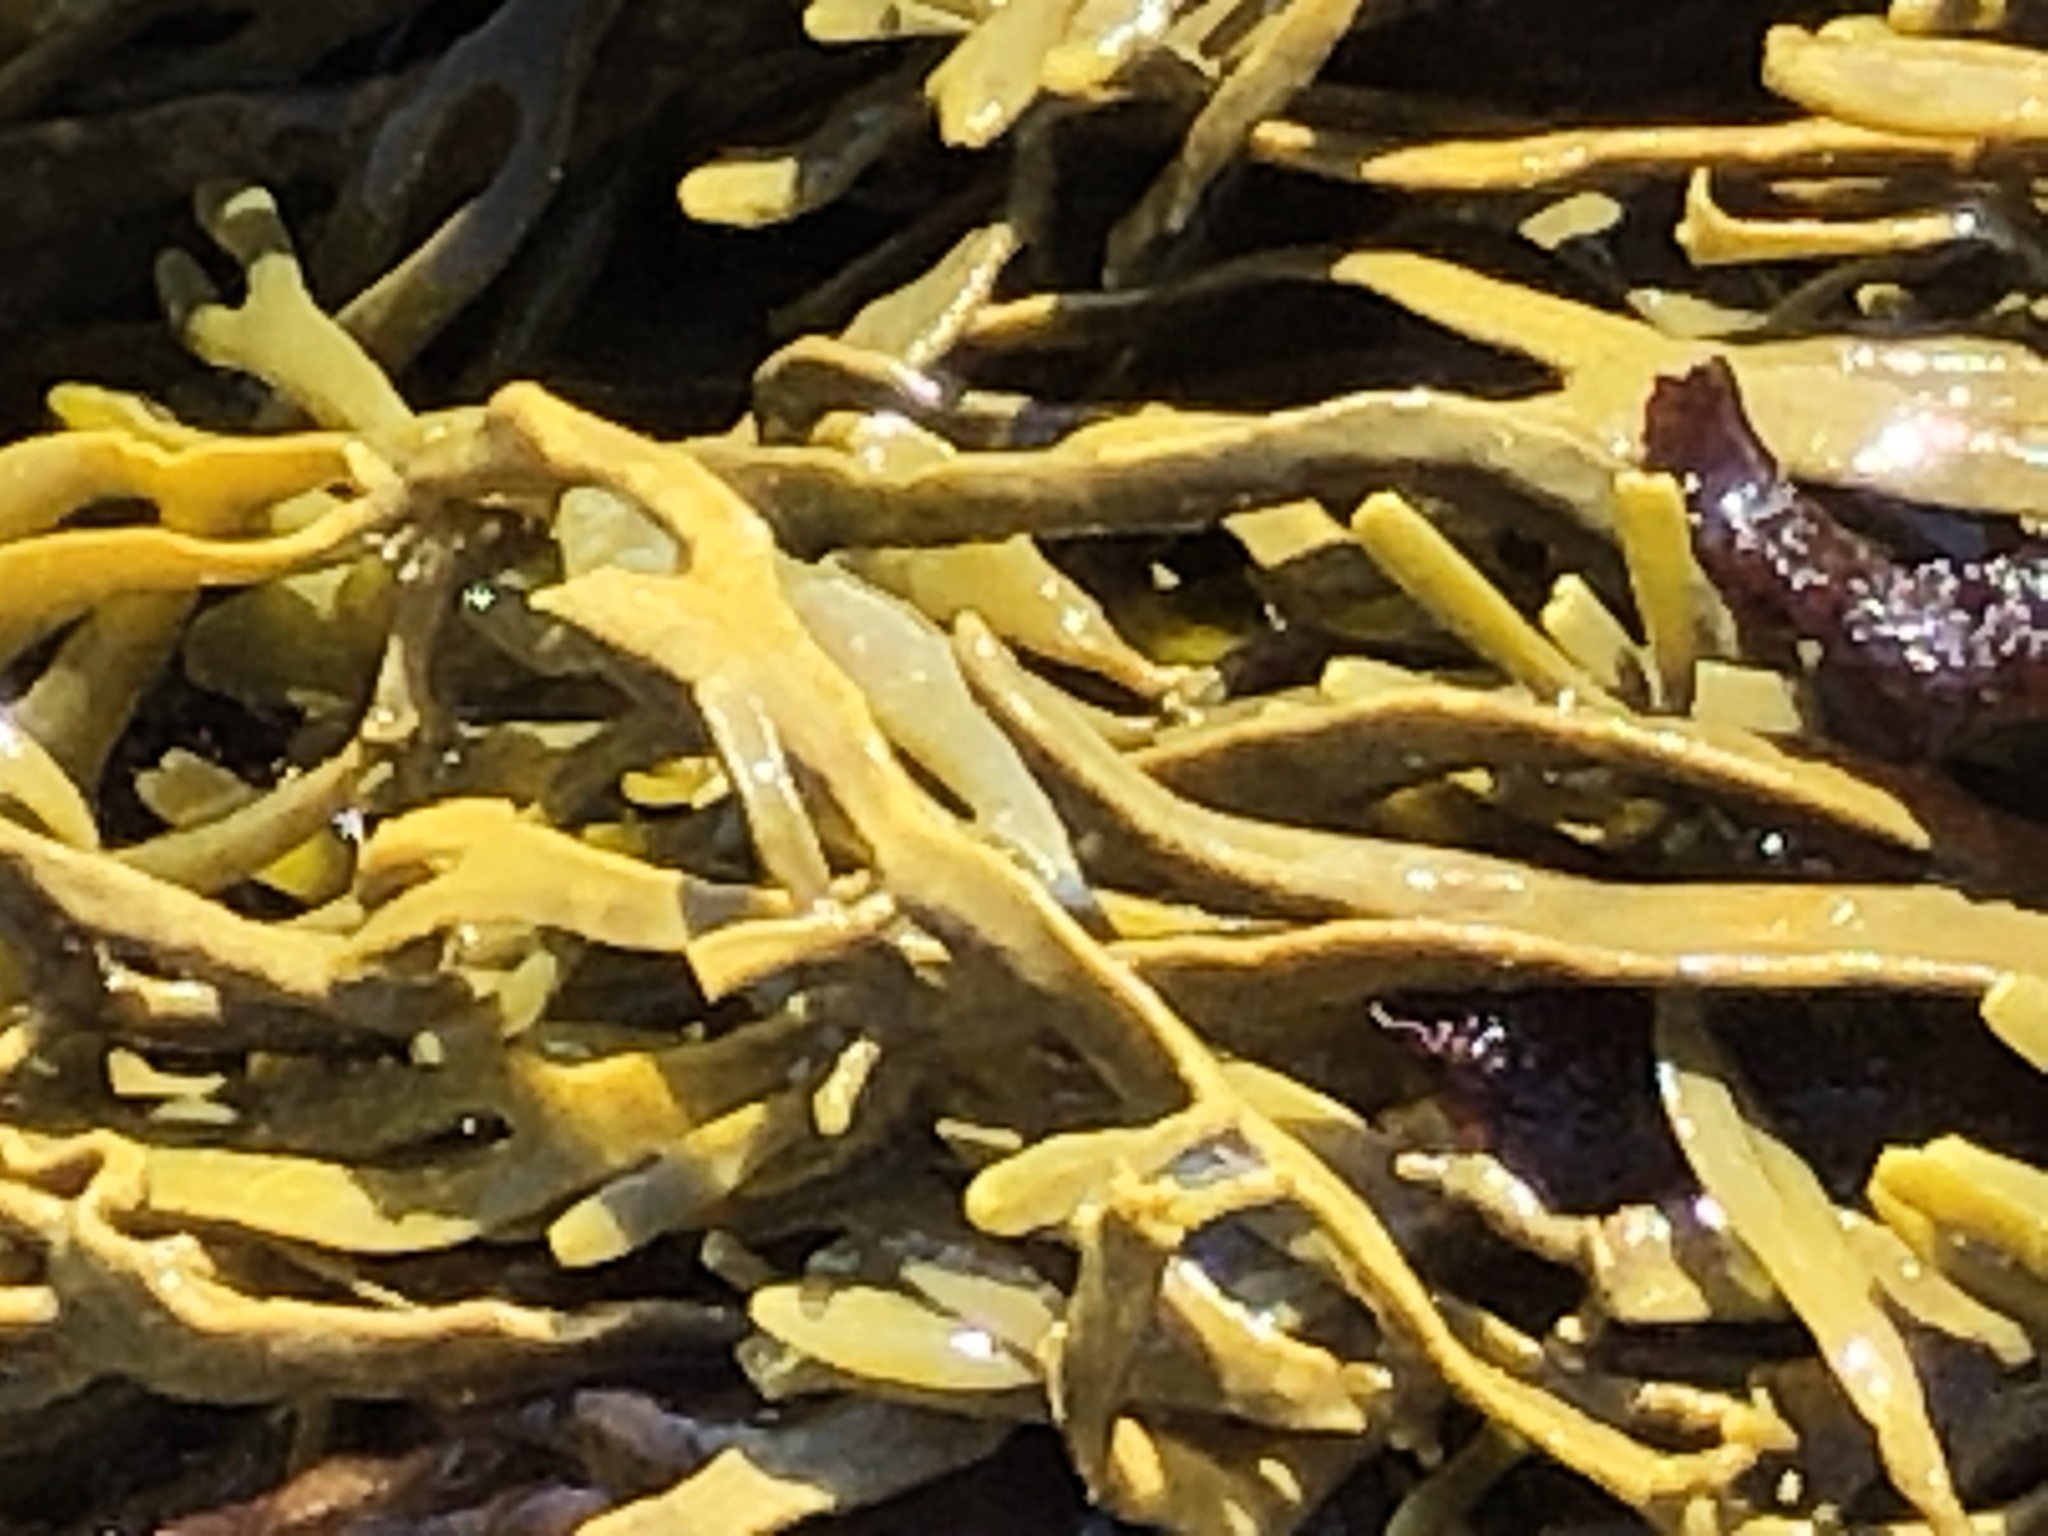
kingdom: Chromista
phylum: Ochrophyta
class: Phaeophyceae
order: Fucales
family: Fucaceae
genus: Silvetia
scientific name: Silvetia
